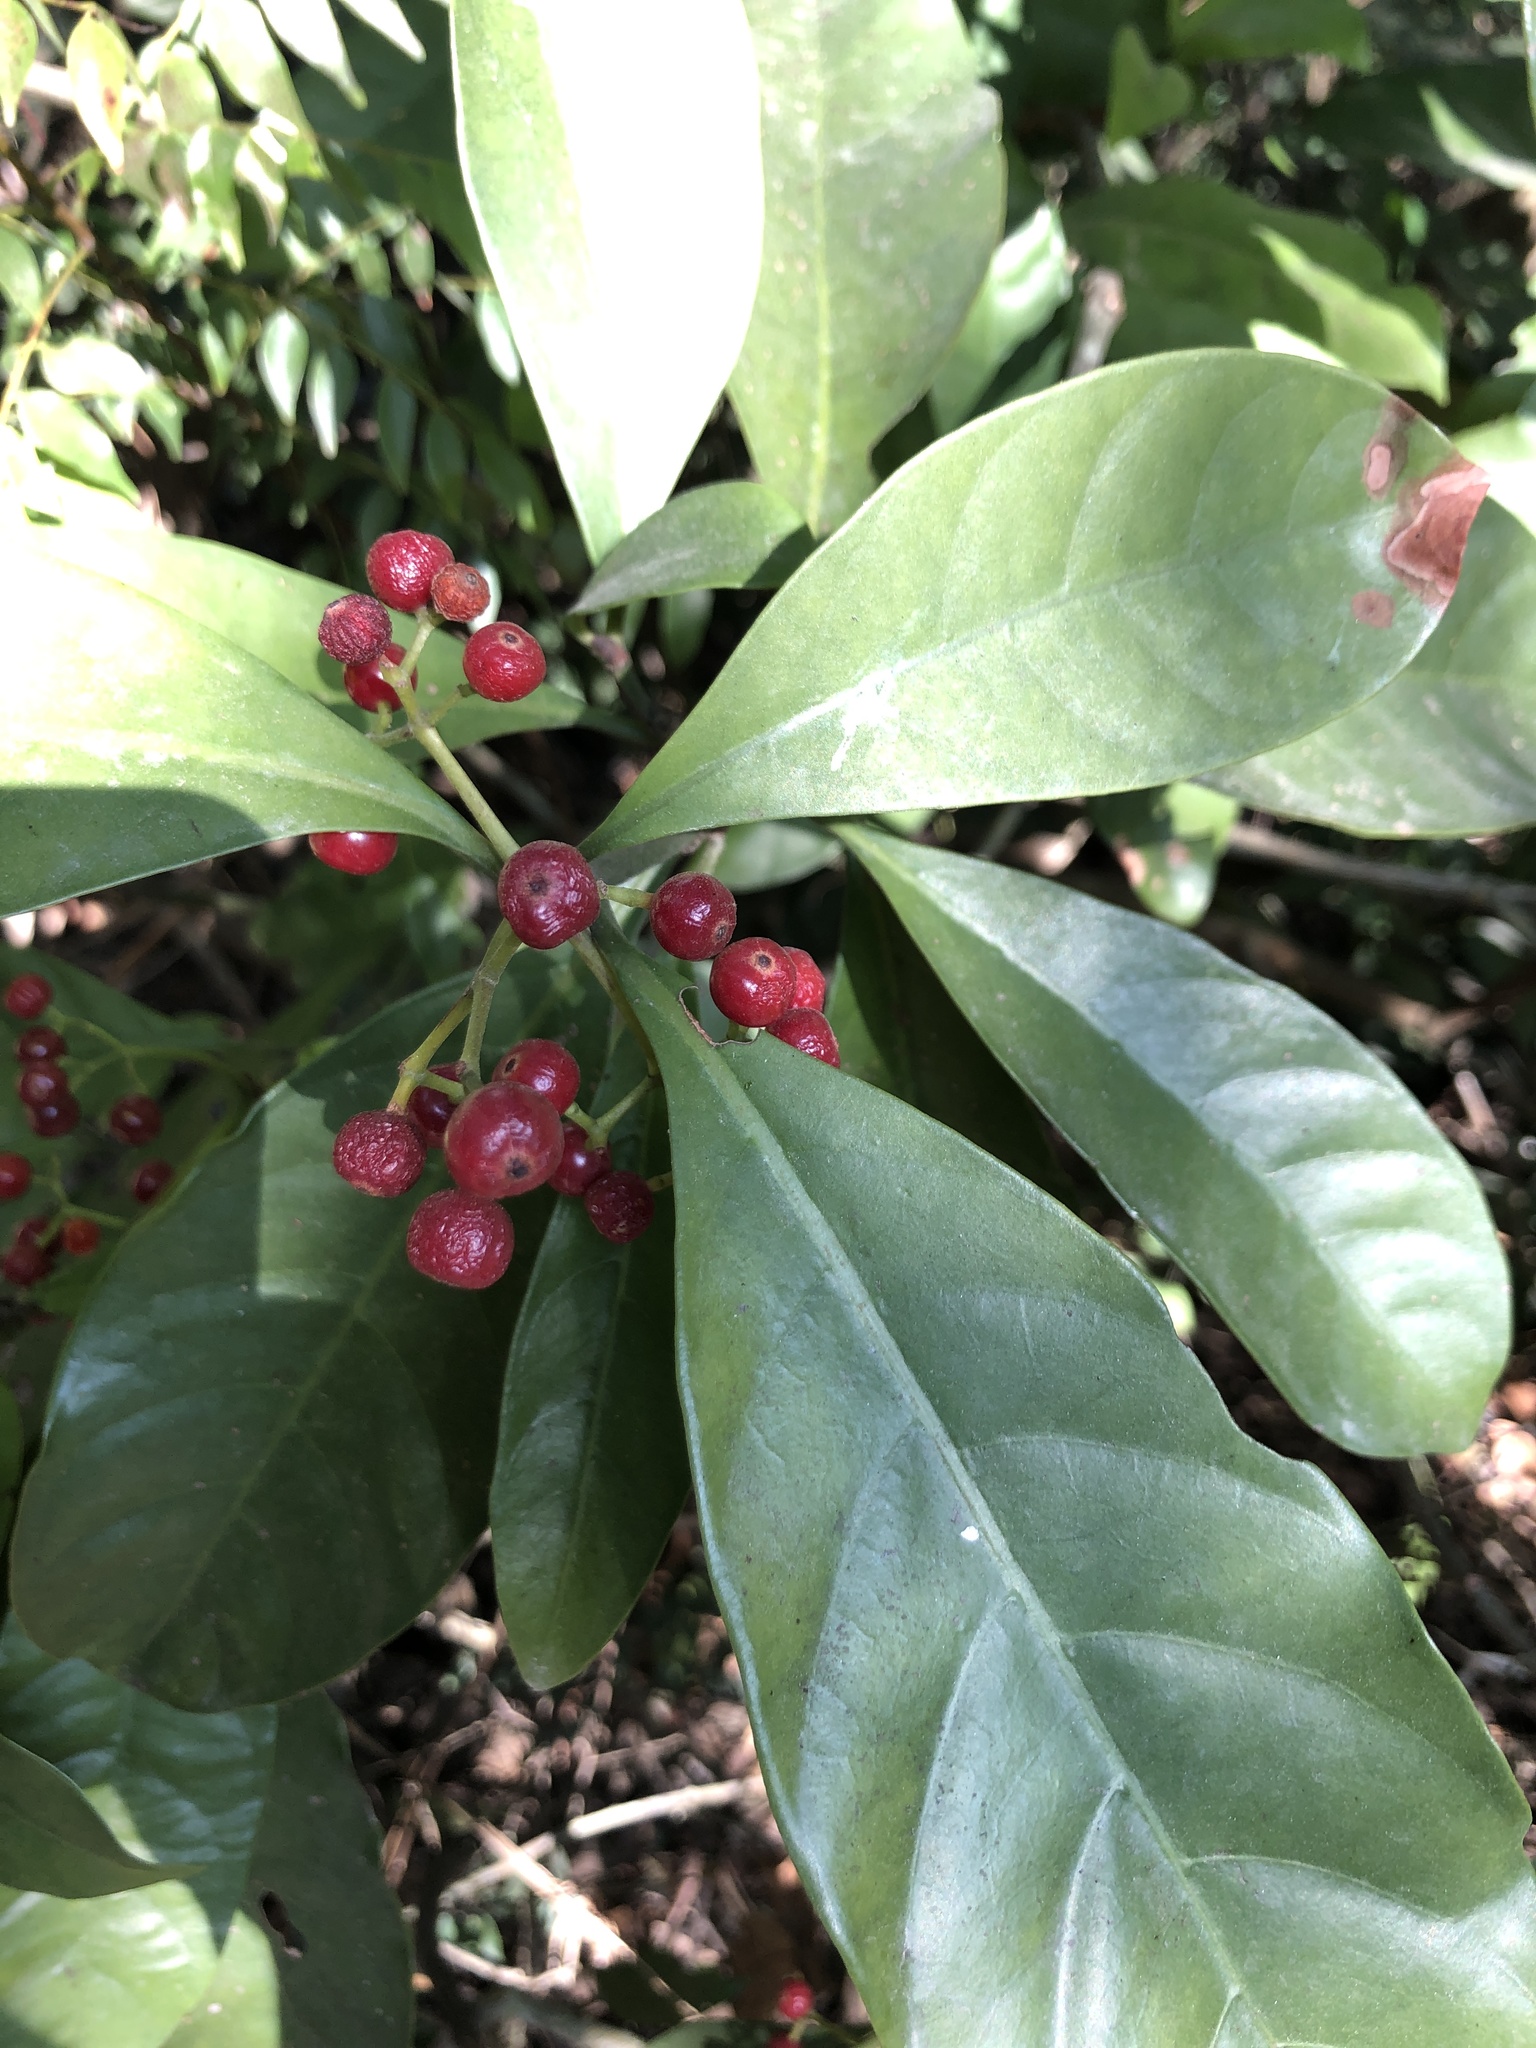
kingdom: Plantae
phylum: Tracheophyta
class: Magnoliopsida
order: Gentianales
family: Rubiaceae
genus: Psychotria
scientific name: Psychotria asiatica
